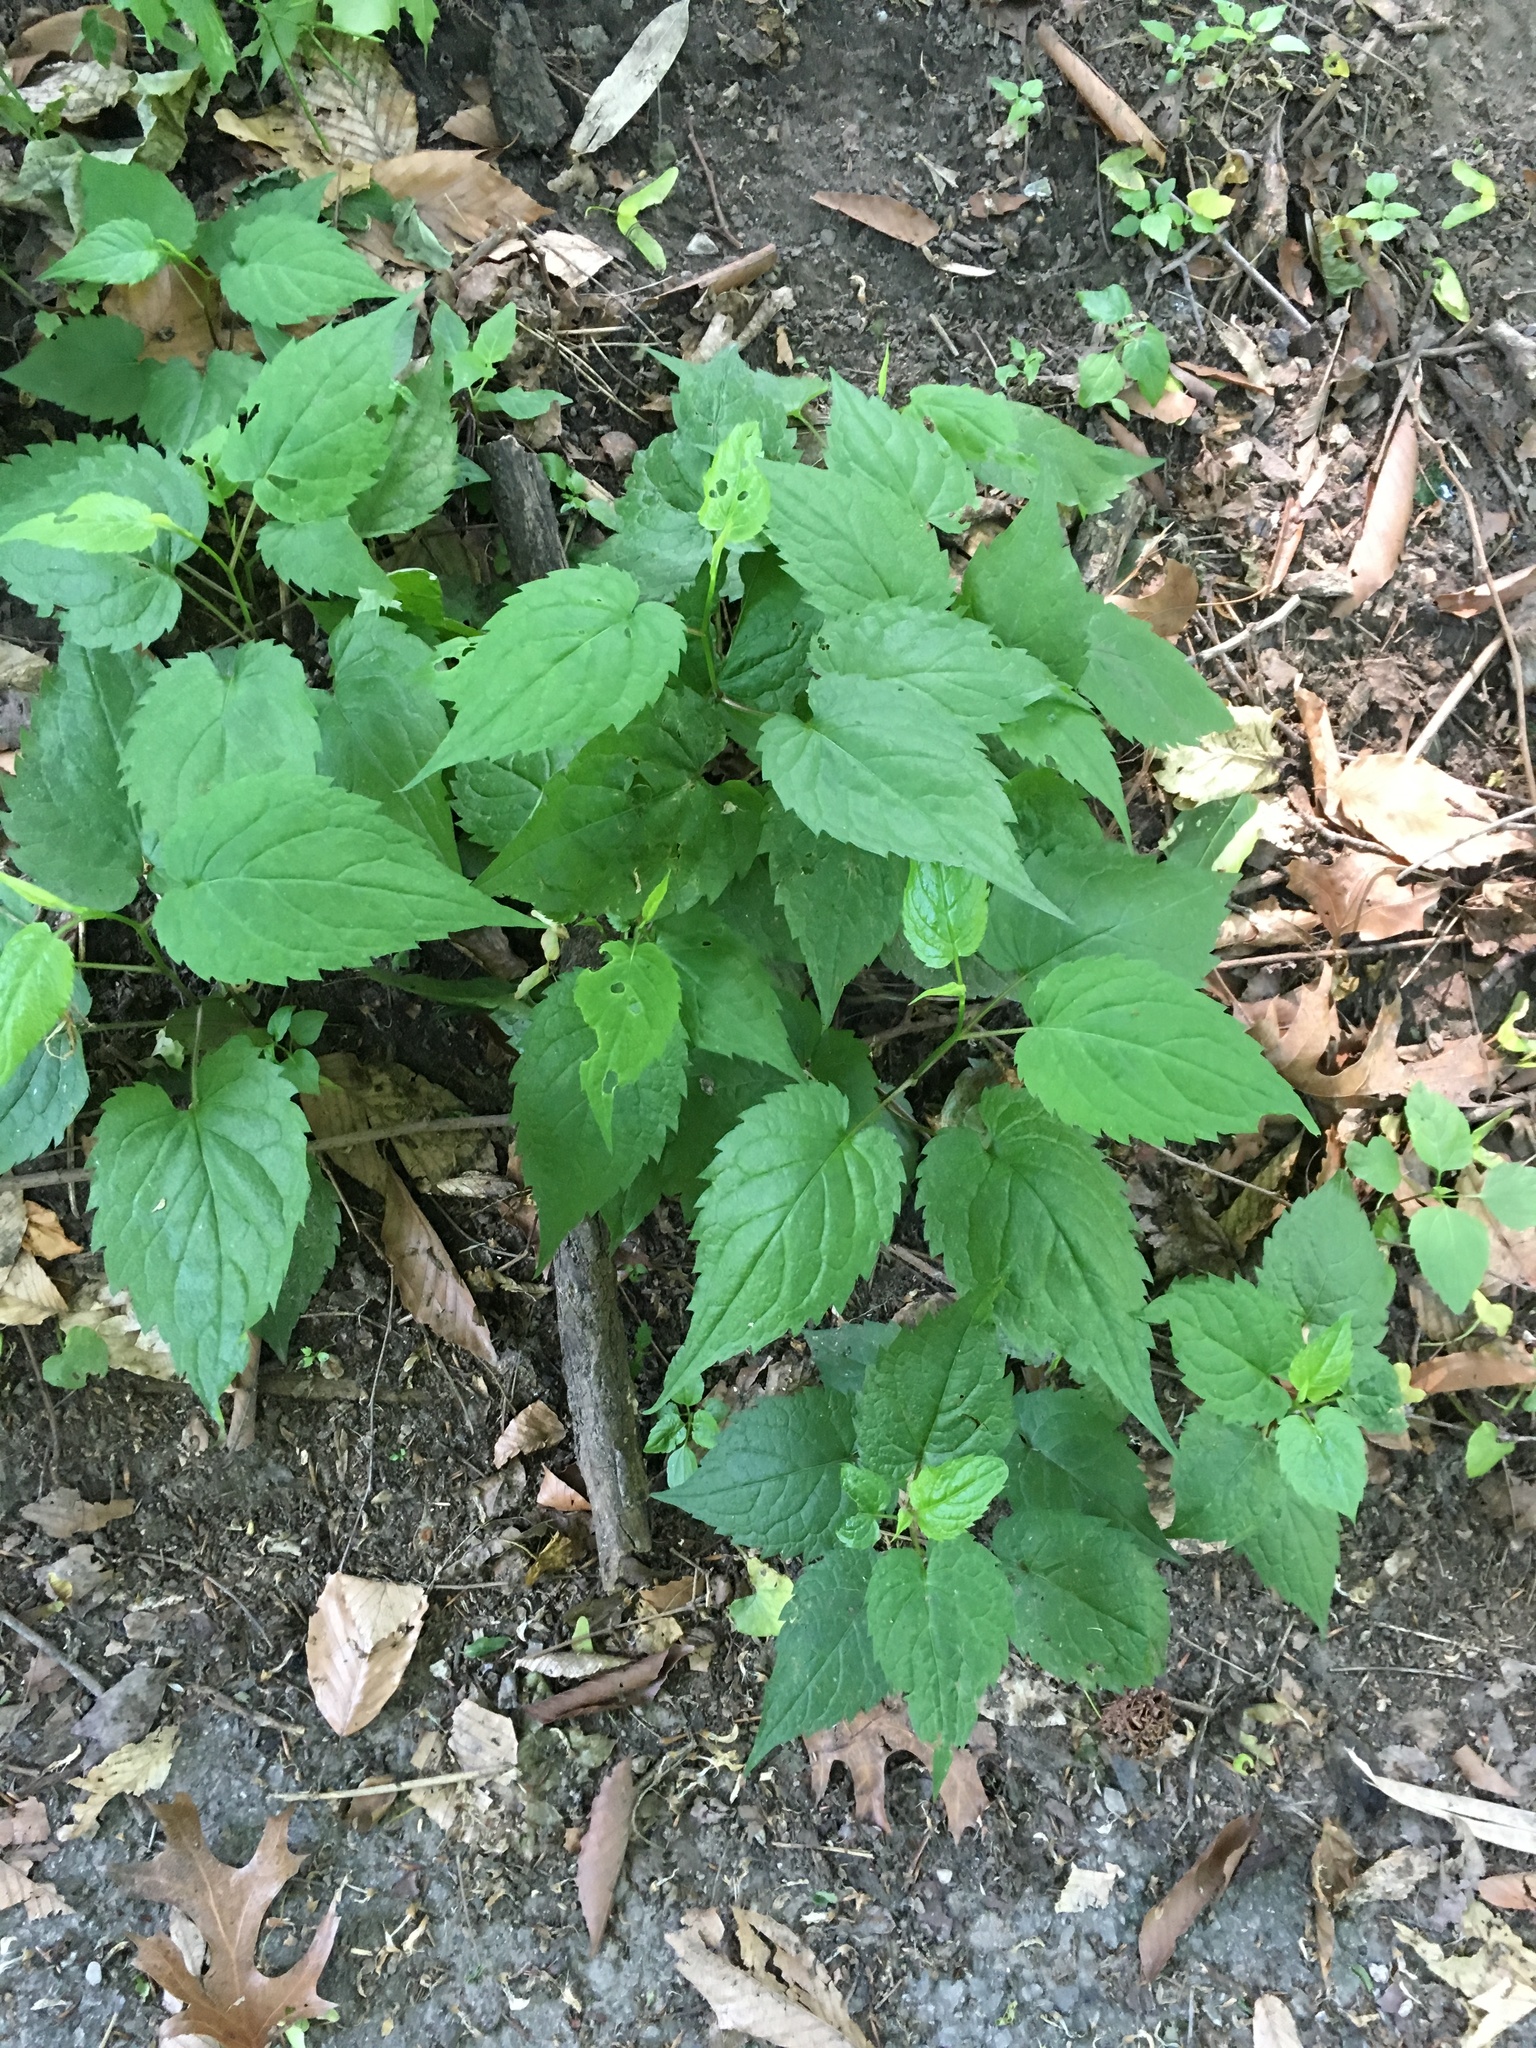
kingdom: Plantae
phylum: Tracheophyta
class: Magnoliopsida
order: Asterales
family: Asteraceae
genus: Eurybia
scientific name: Eurybia divaricata
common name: White wood aster
